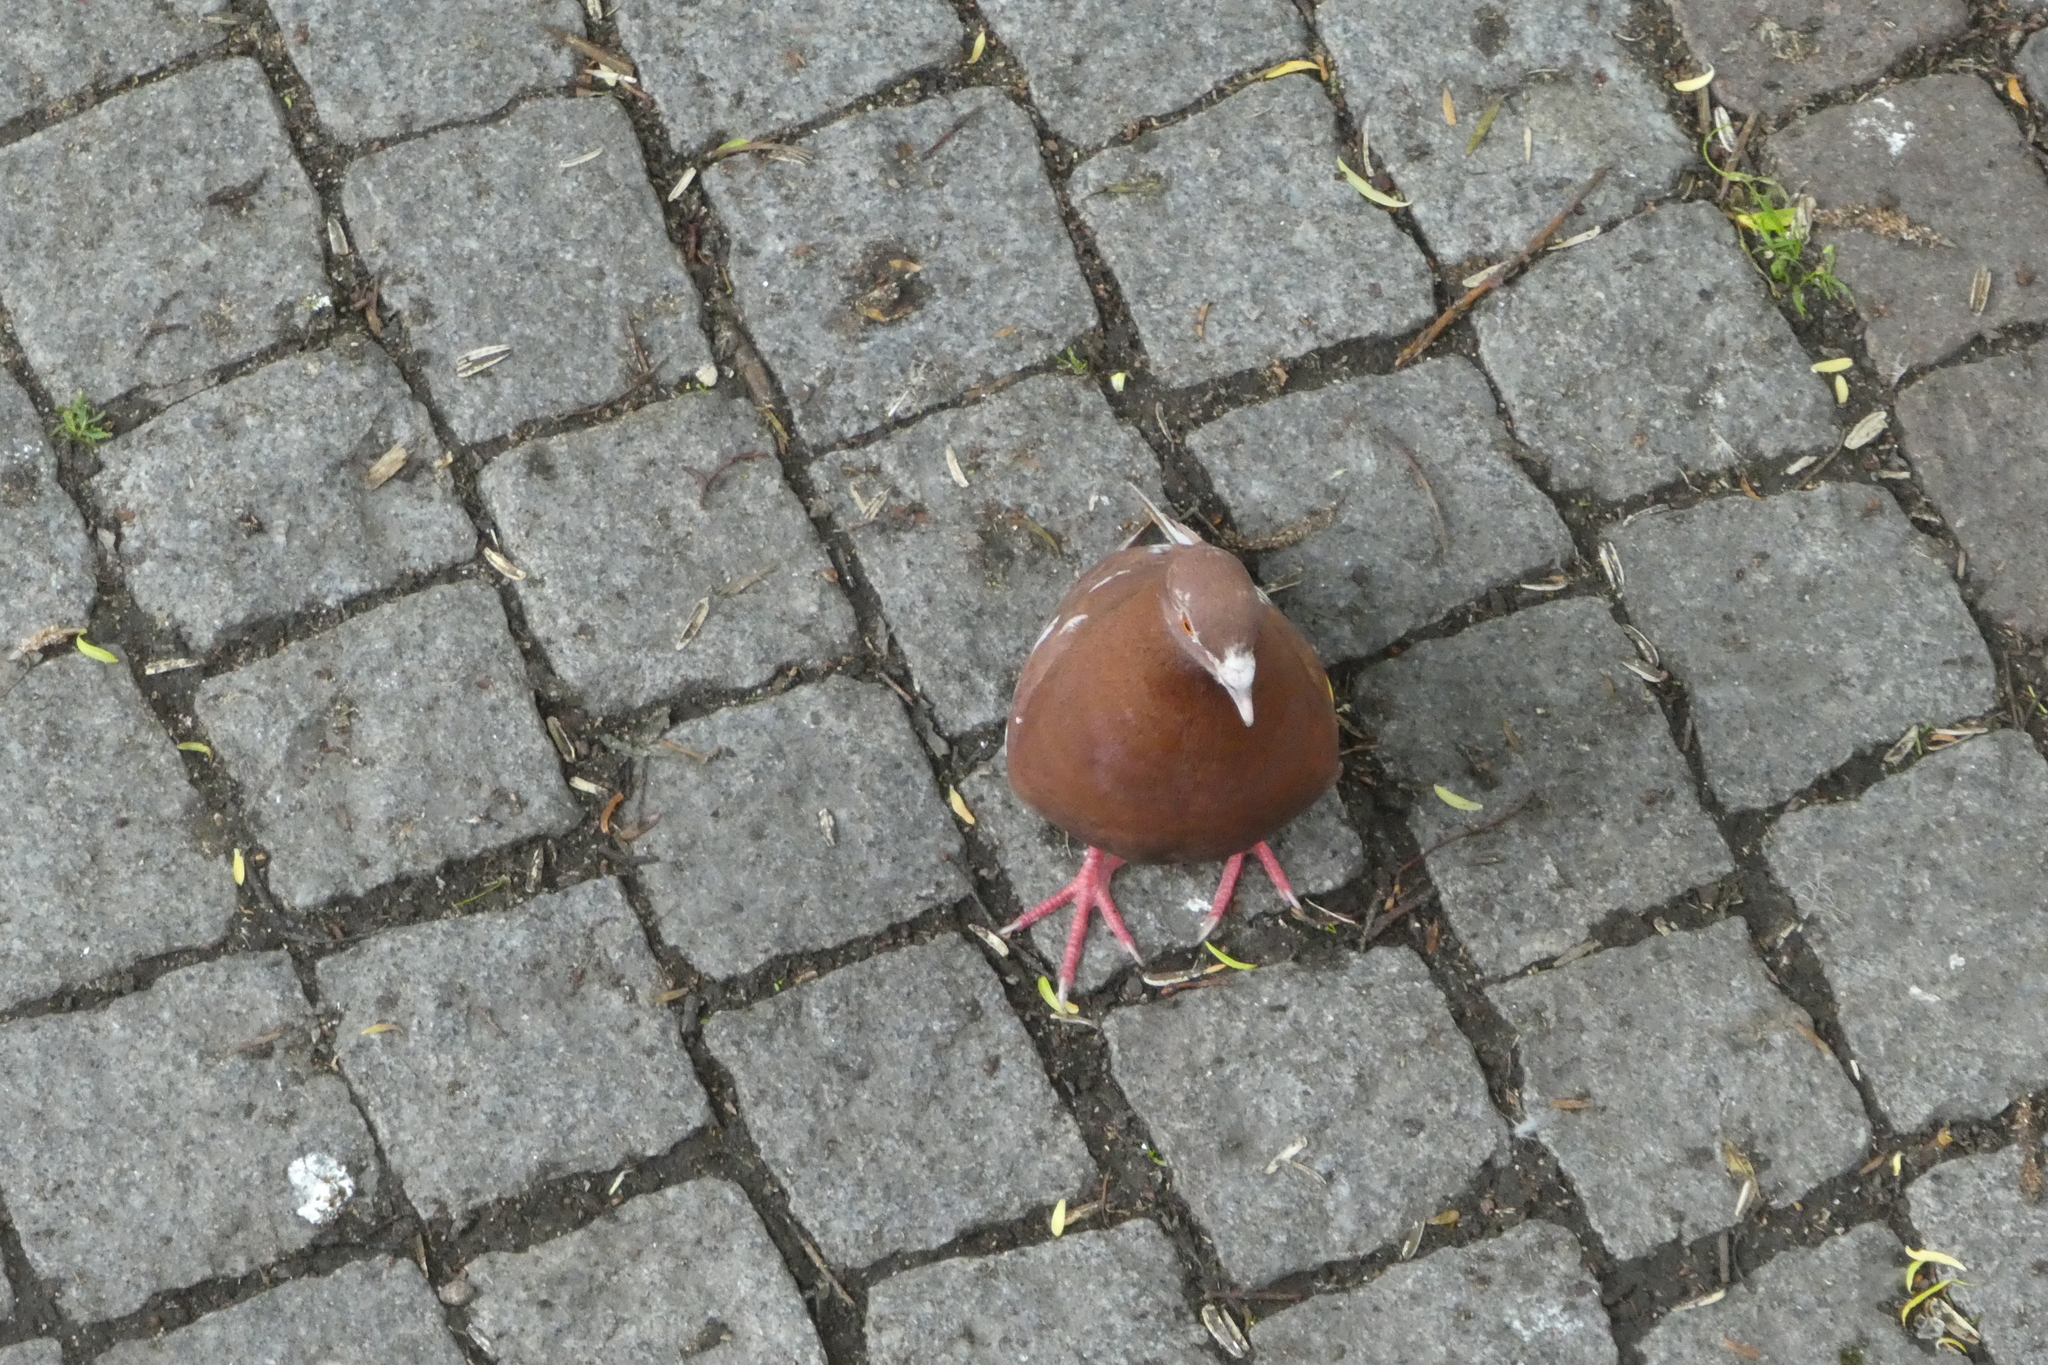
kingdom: Animalia
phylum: Chordata
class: Aves
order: Columbiformes
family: Columbidae
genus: Columba
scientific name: Columba livia
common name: Rock pigeon
